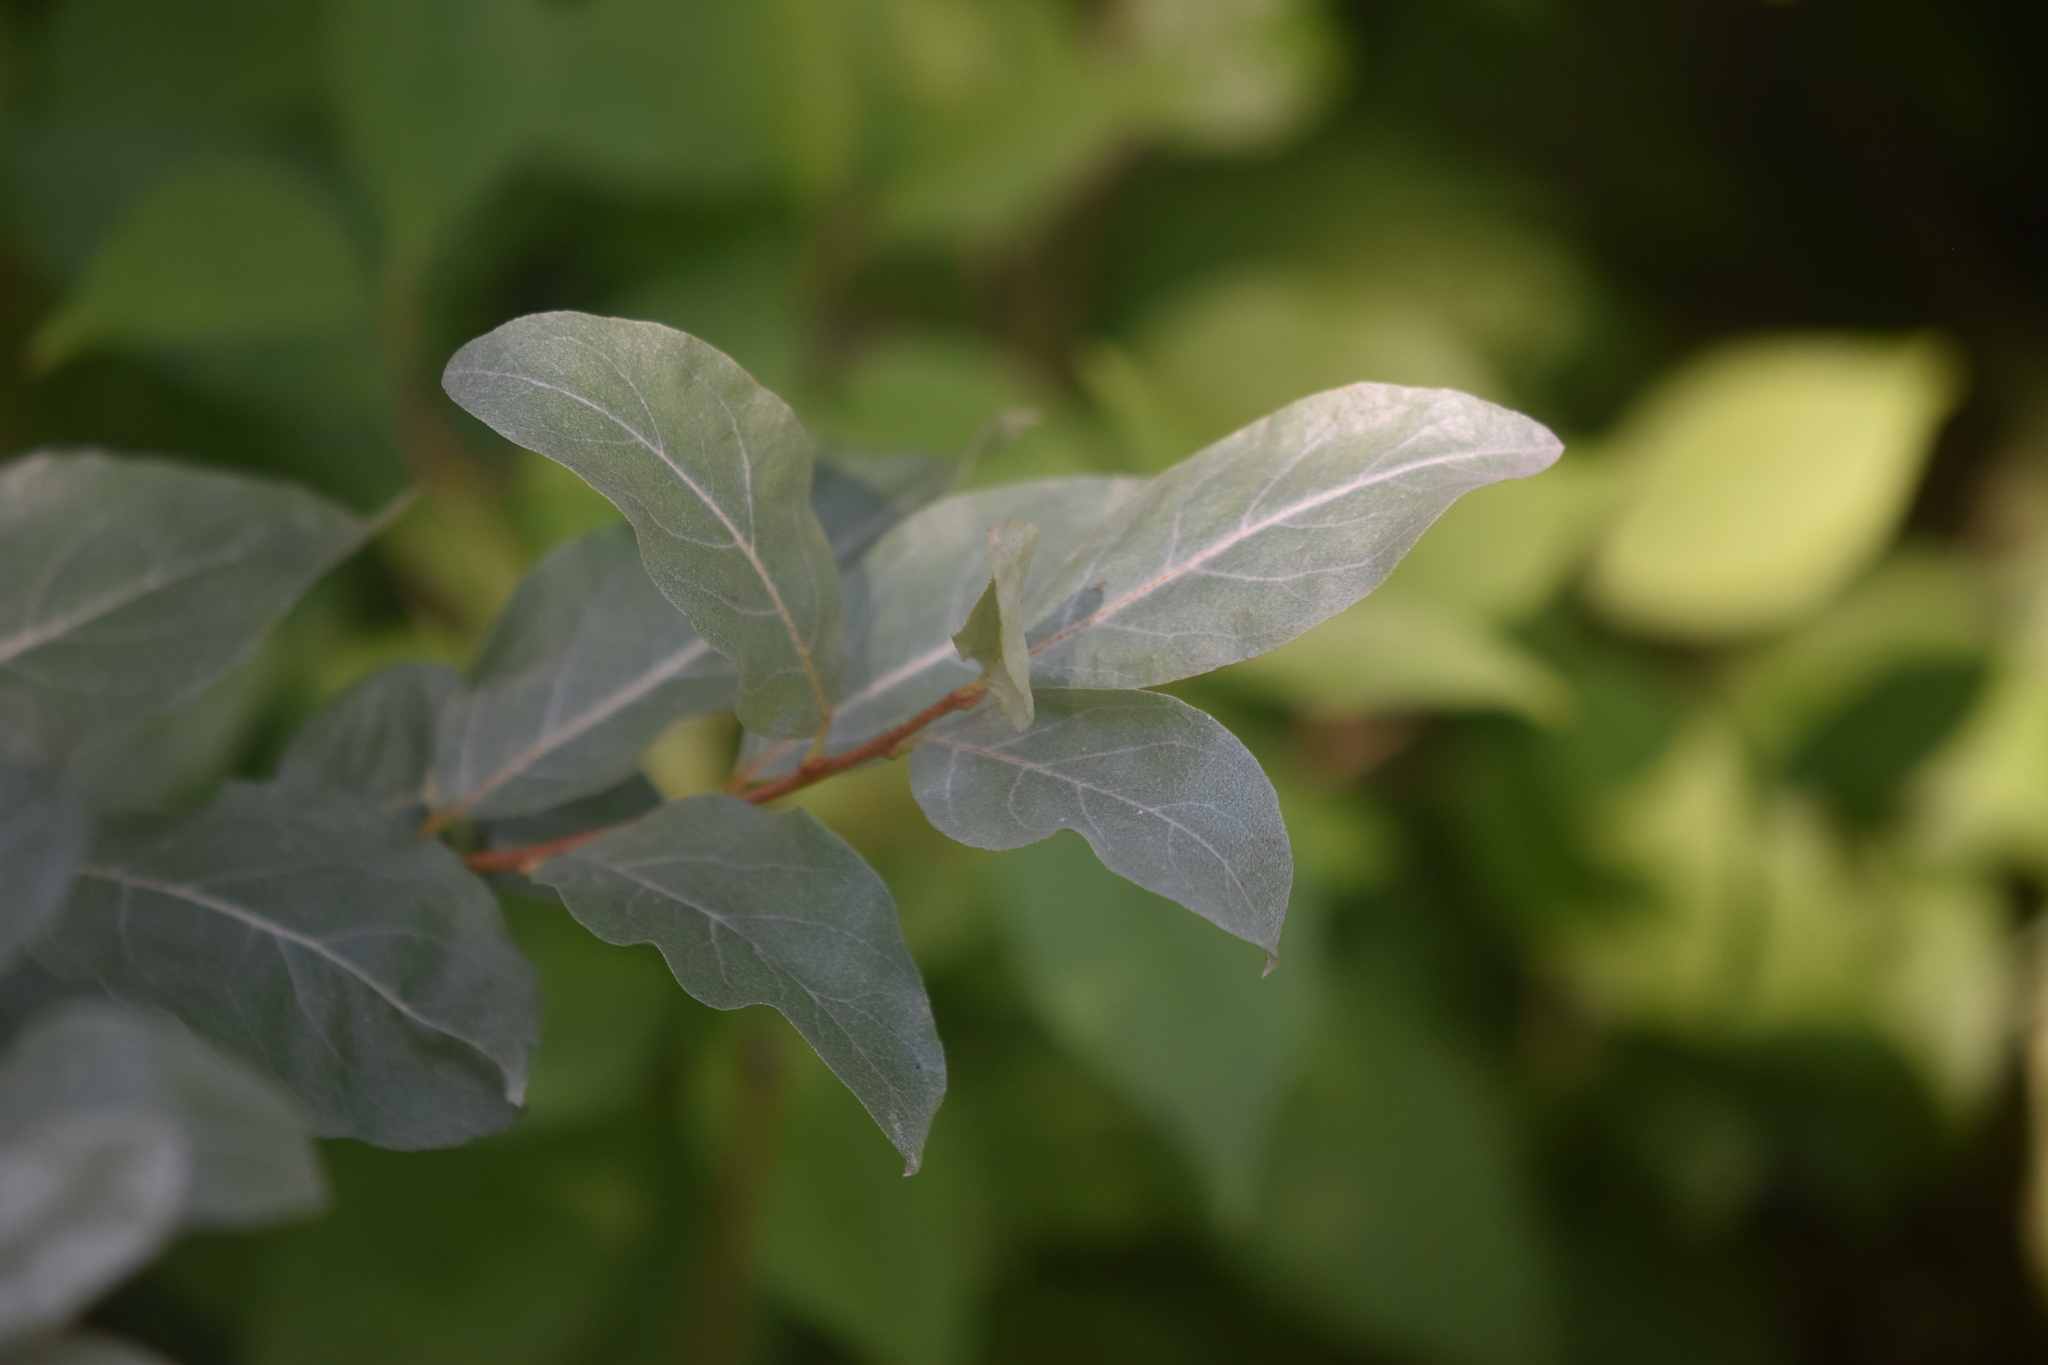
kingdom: Plantae
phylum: Tracheophyta
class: Magnoliopsida
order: Rosales
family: Elaeagnaceae
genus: Elaeagnus
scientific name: Elaeagnus commutata
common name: Silverberry
